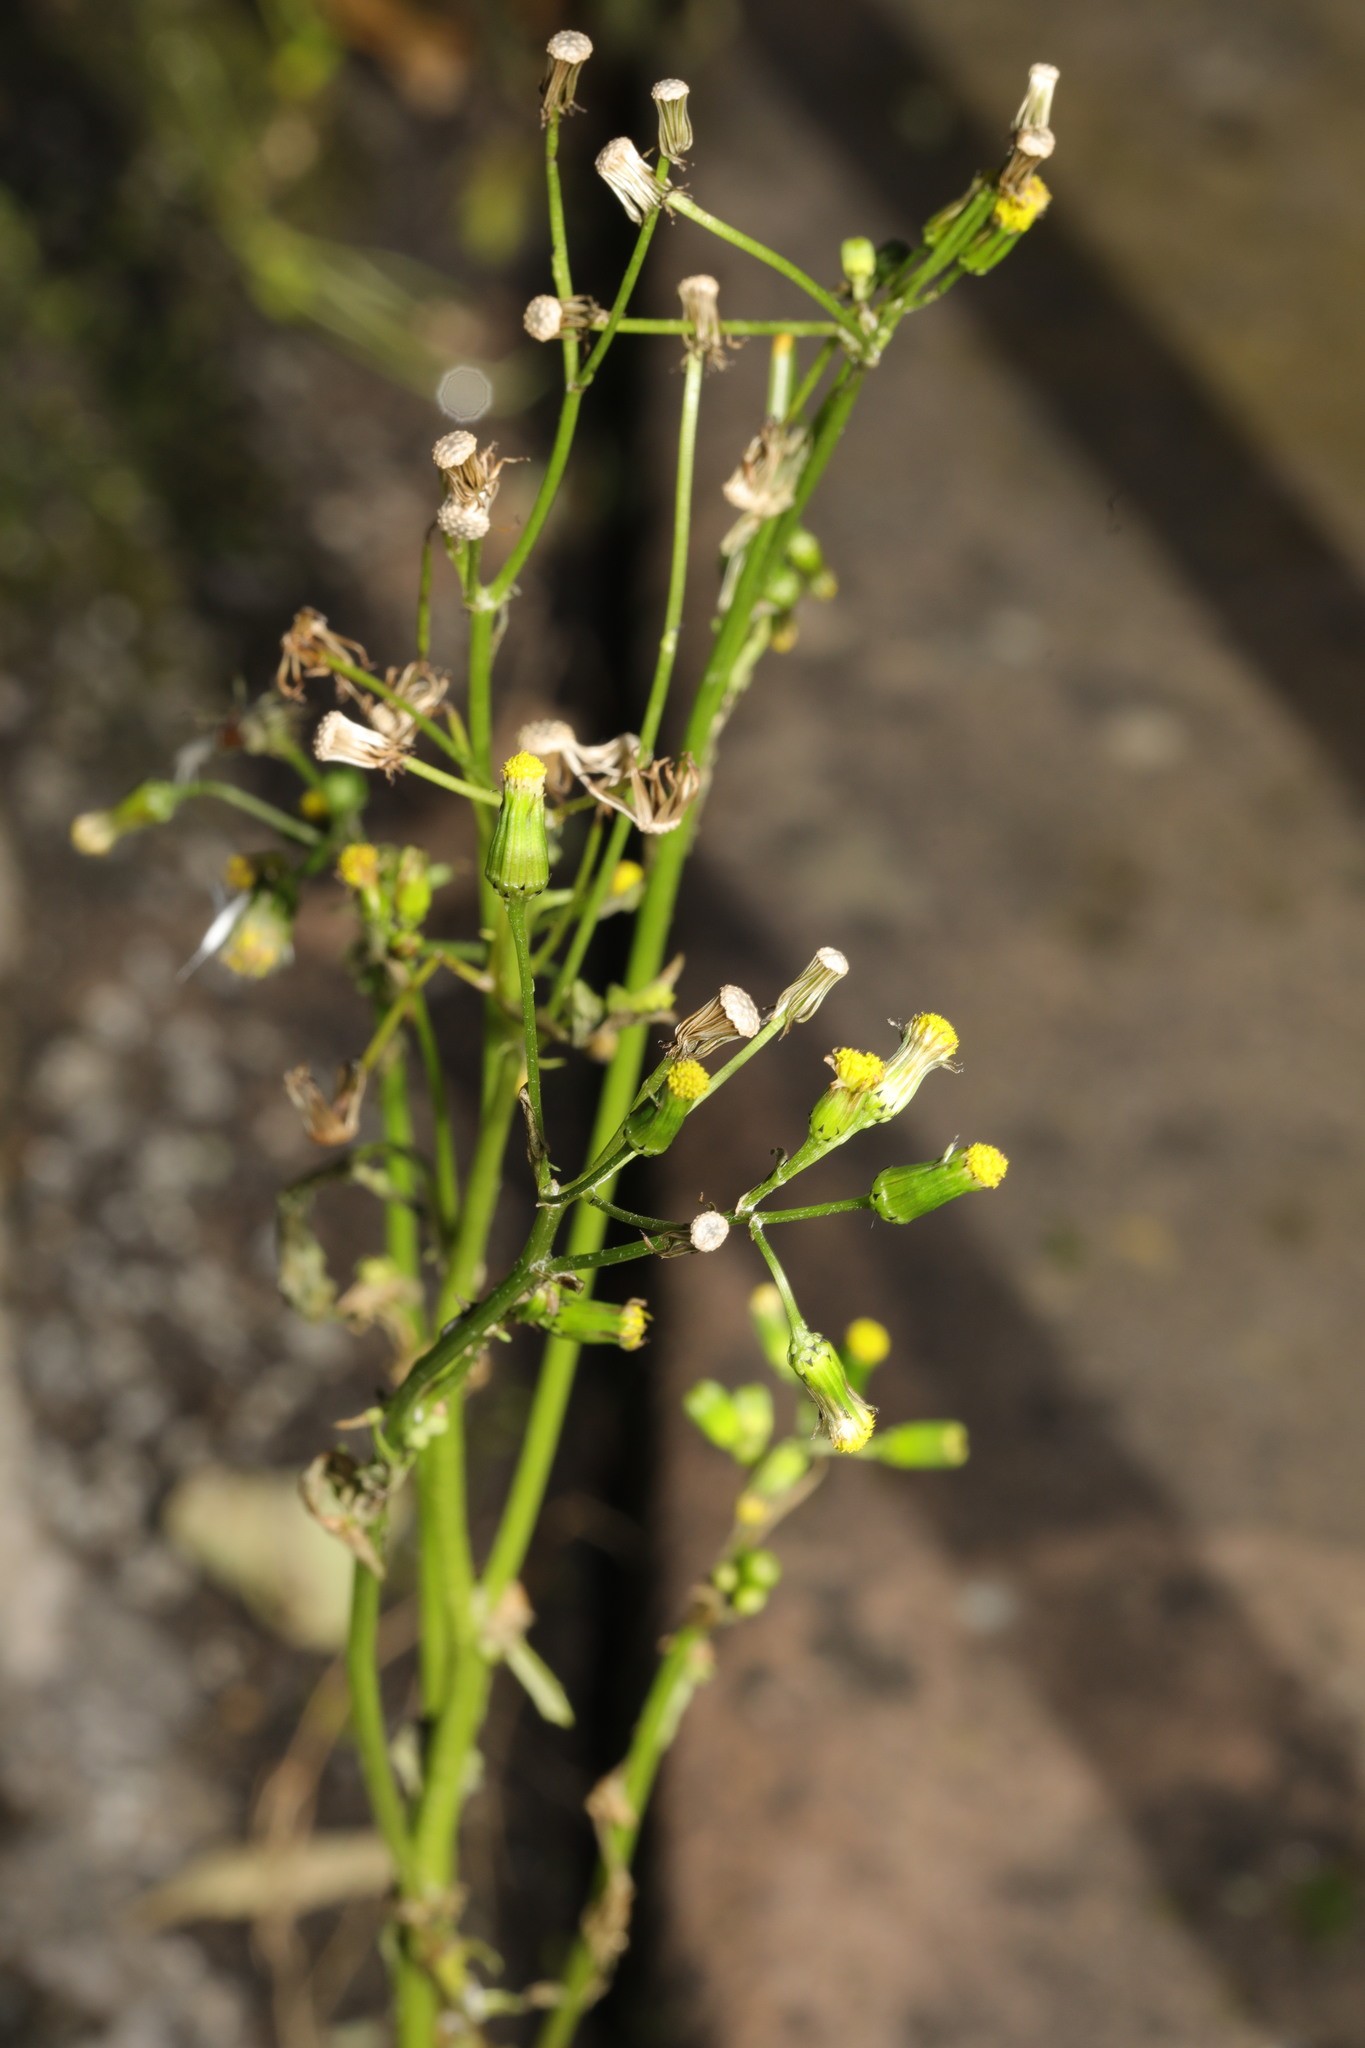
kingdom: Plantae
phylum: Tracheophyta
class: Magnoliopsida
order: Asterales
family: Asteraceae
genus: Senecio
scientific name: Senecio vulgaris
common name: Old-man-in-the-spring
